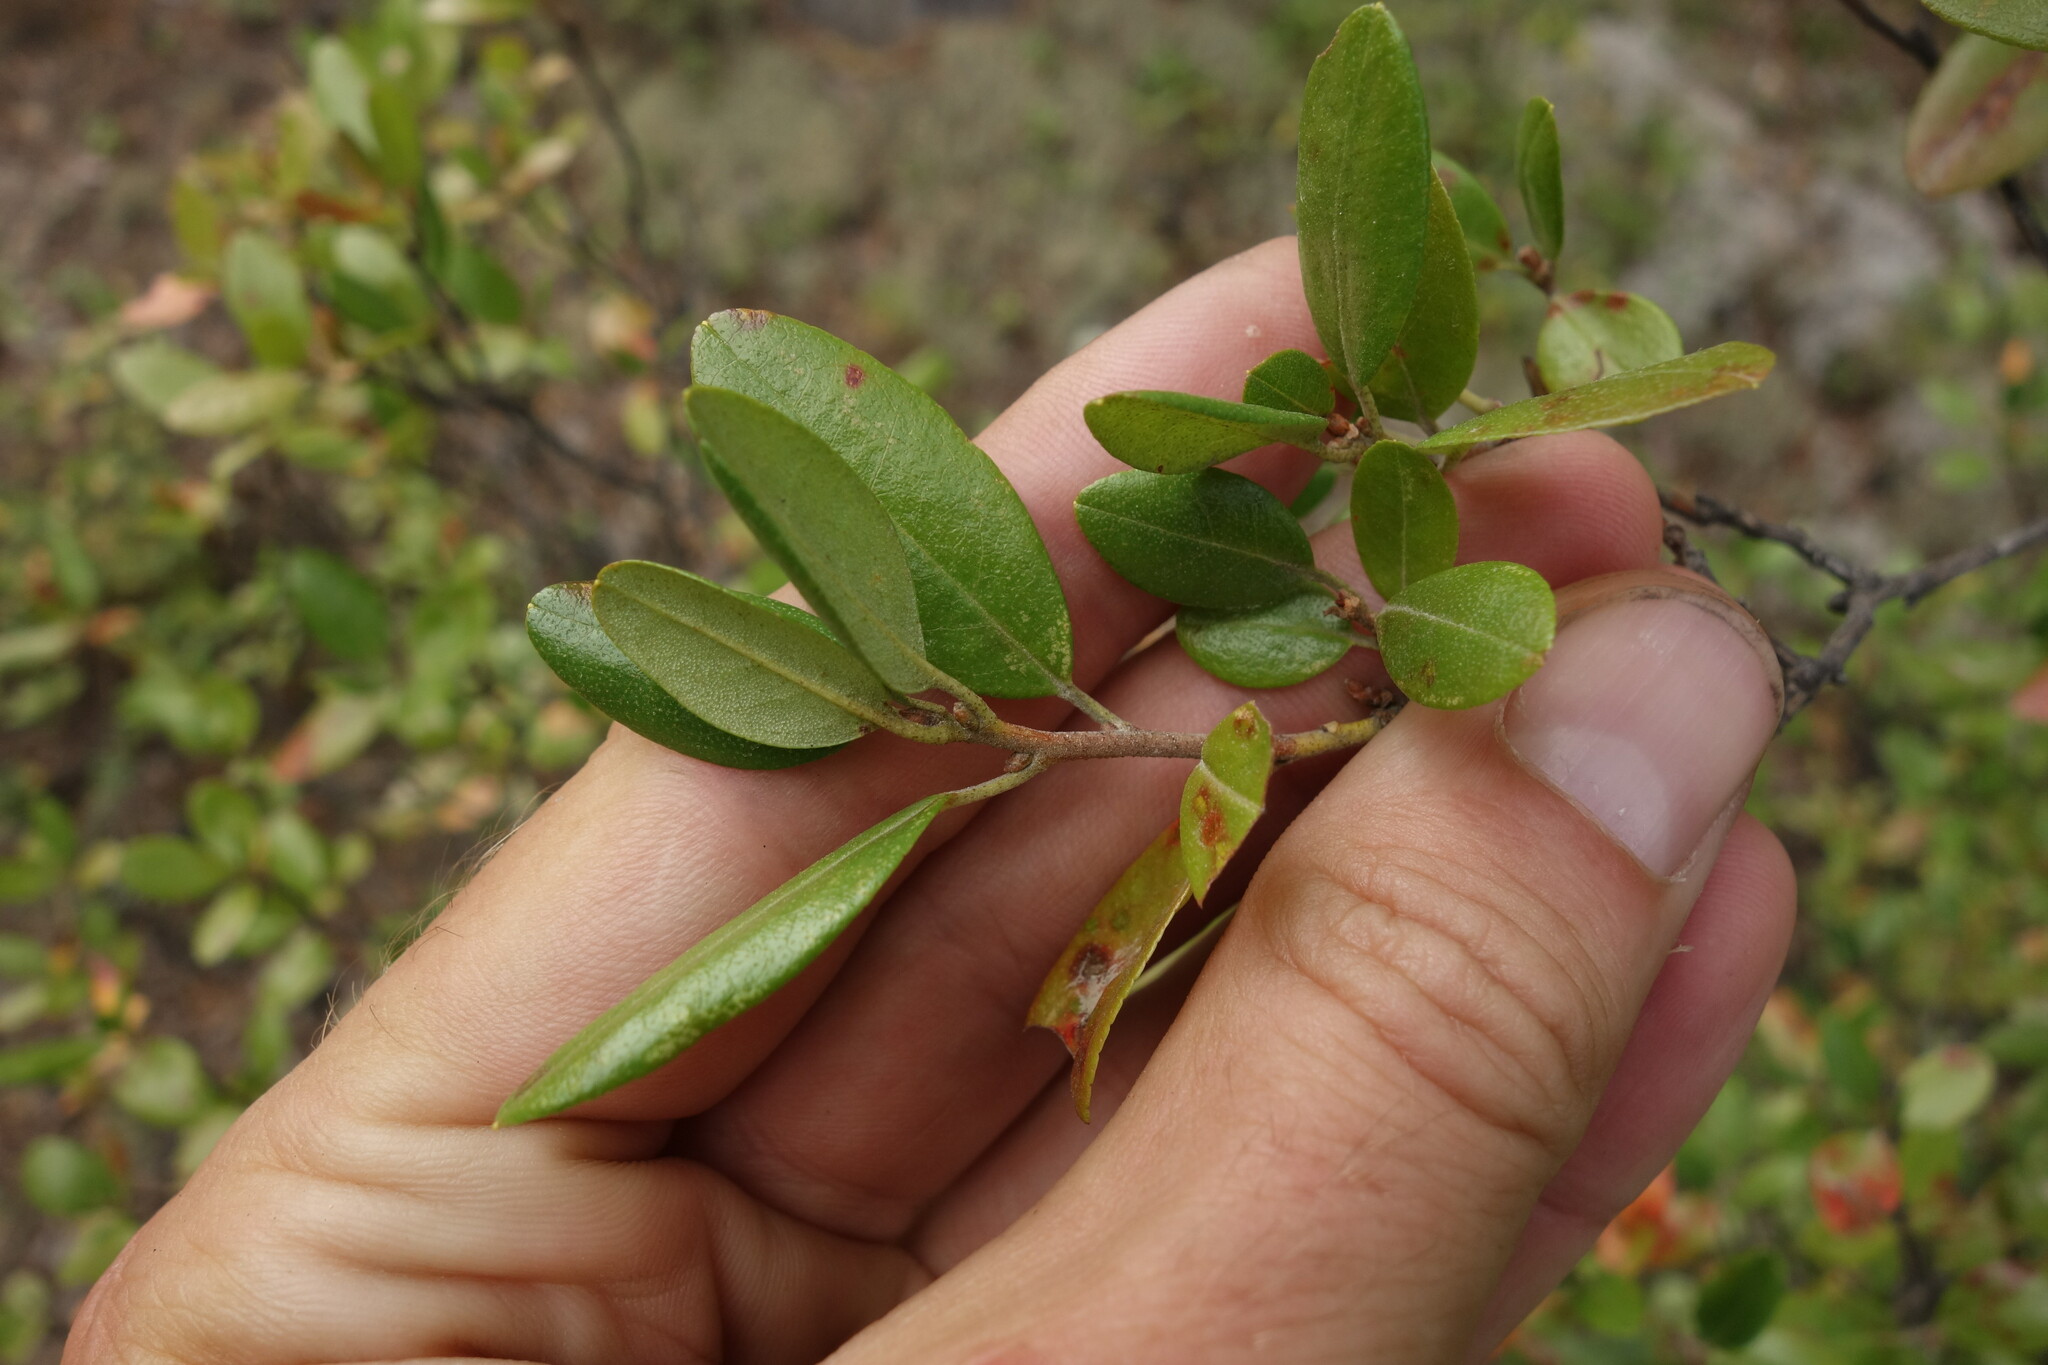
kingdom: Plantae
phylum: Tracheophyta
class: Magnoliopsida
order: Ericales
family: Ericaceae
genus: Rhododendron
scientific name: Rhododendron dauricum
